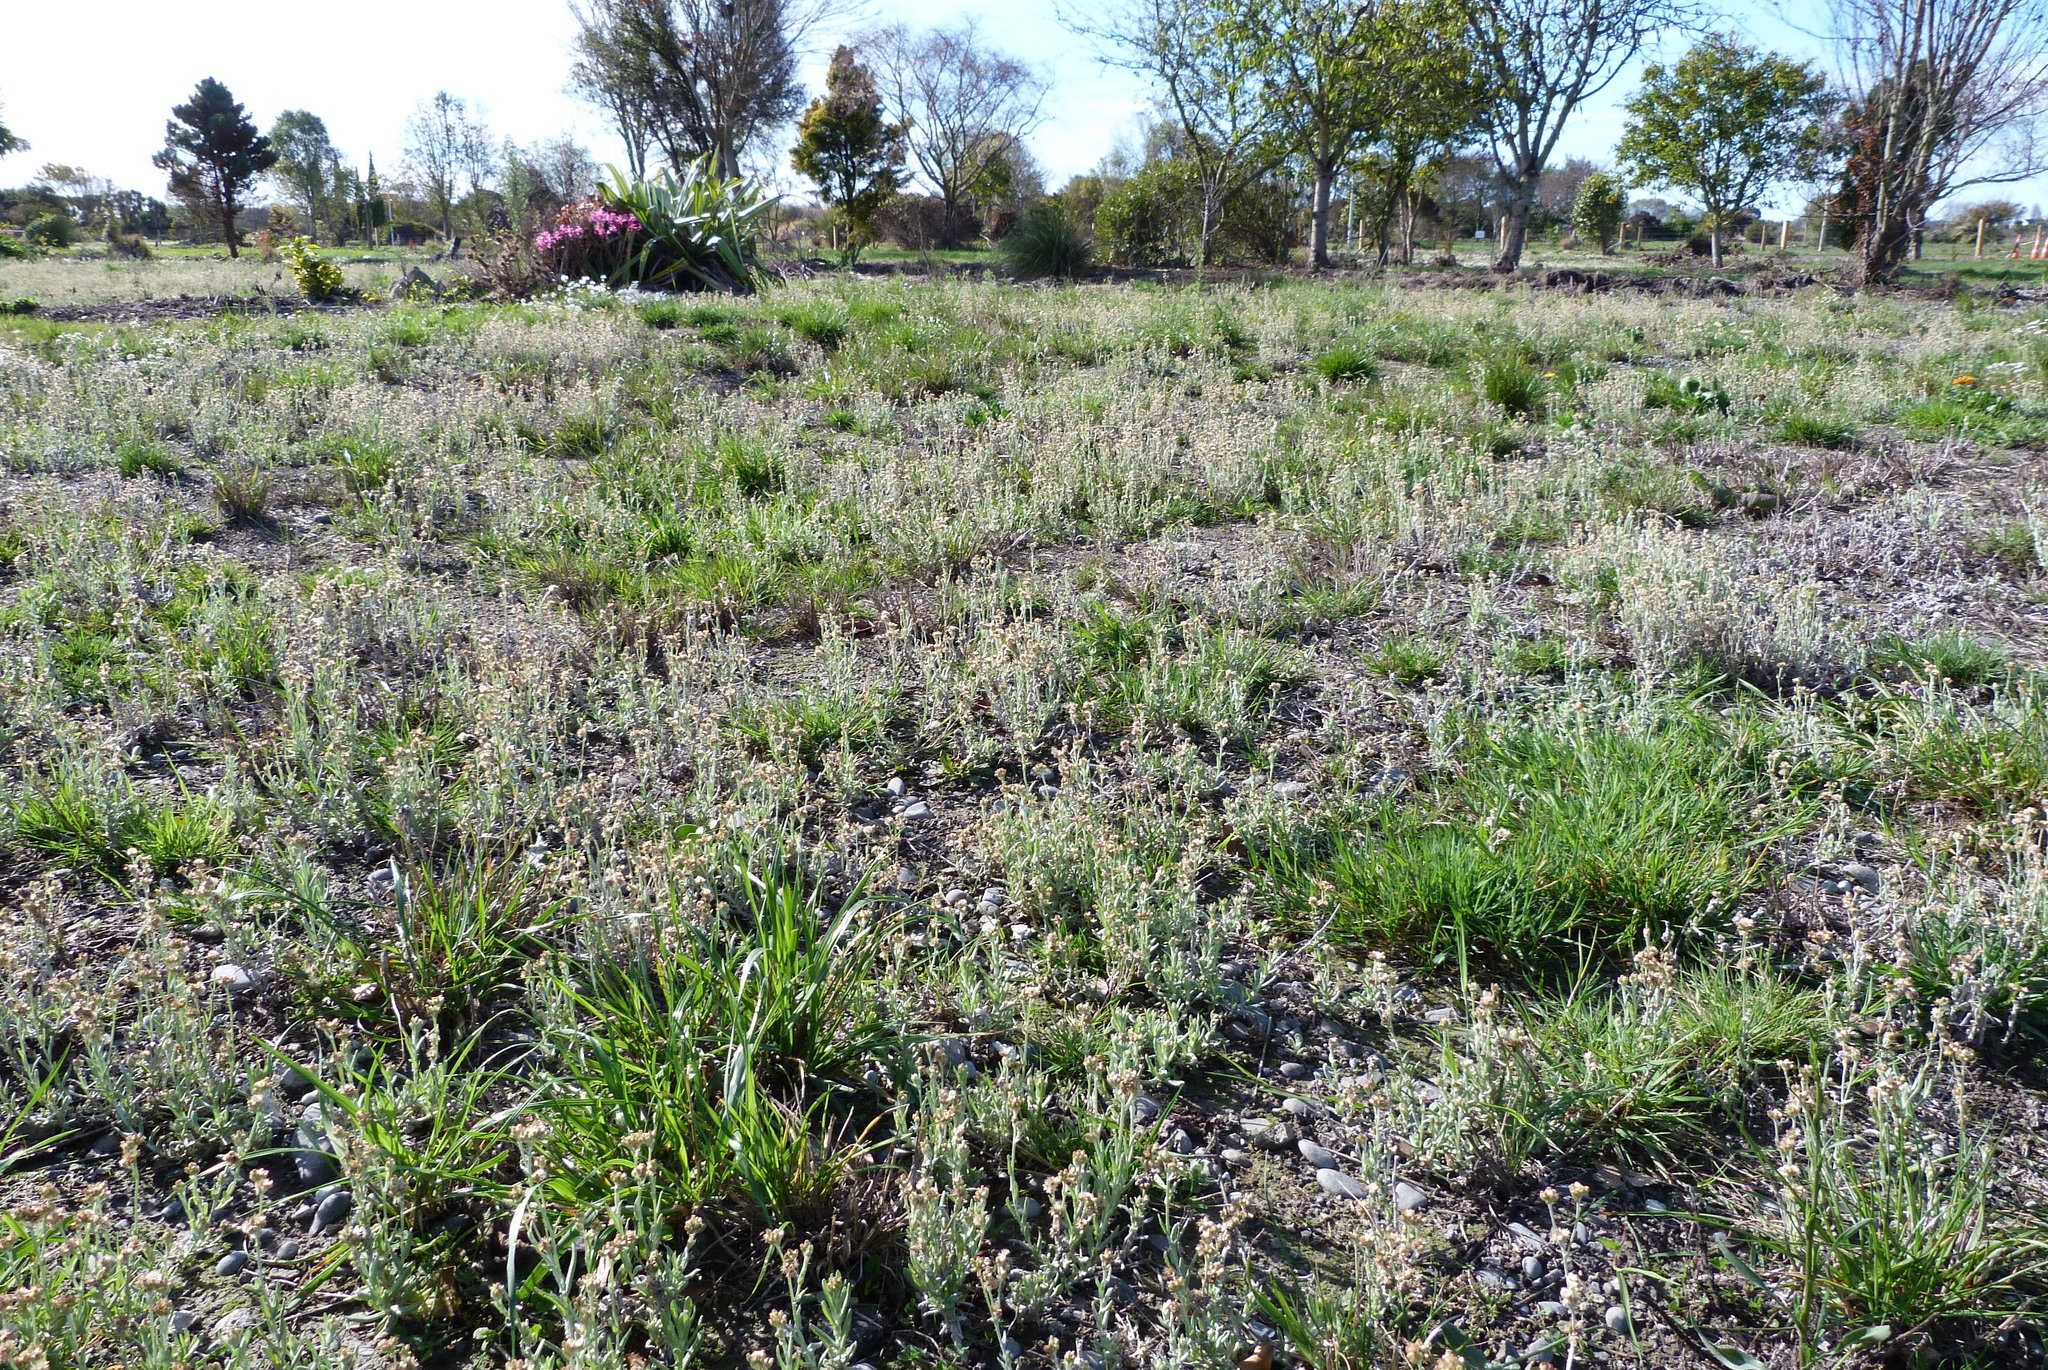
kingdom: Plantae
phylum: Tracheophyta
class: Magnoliopsida
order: Asterales
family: Asteraceae
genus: Helichrysum
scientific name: Helichrysum luteoalbum
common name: Daisy
